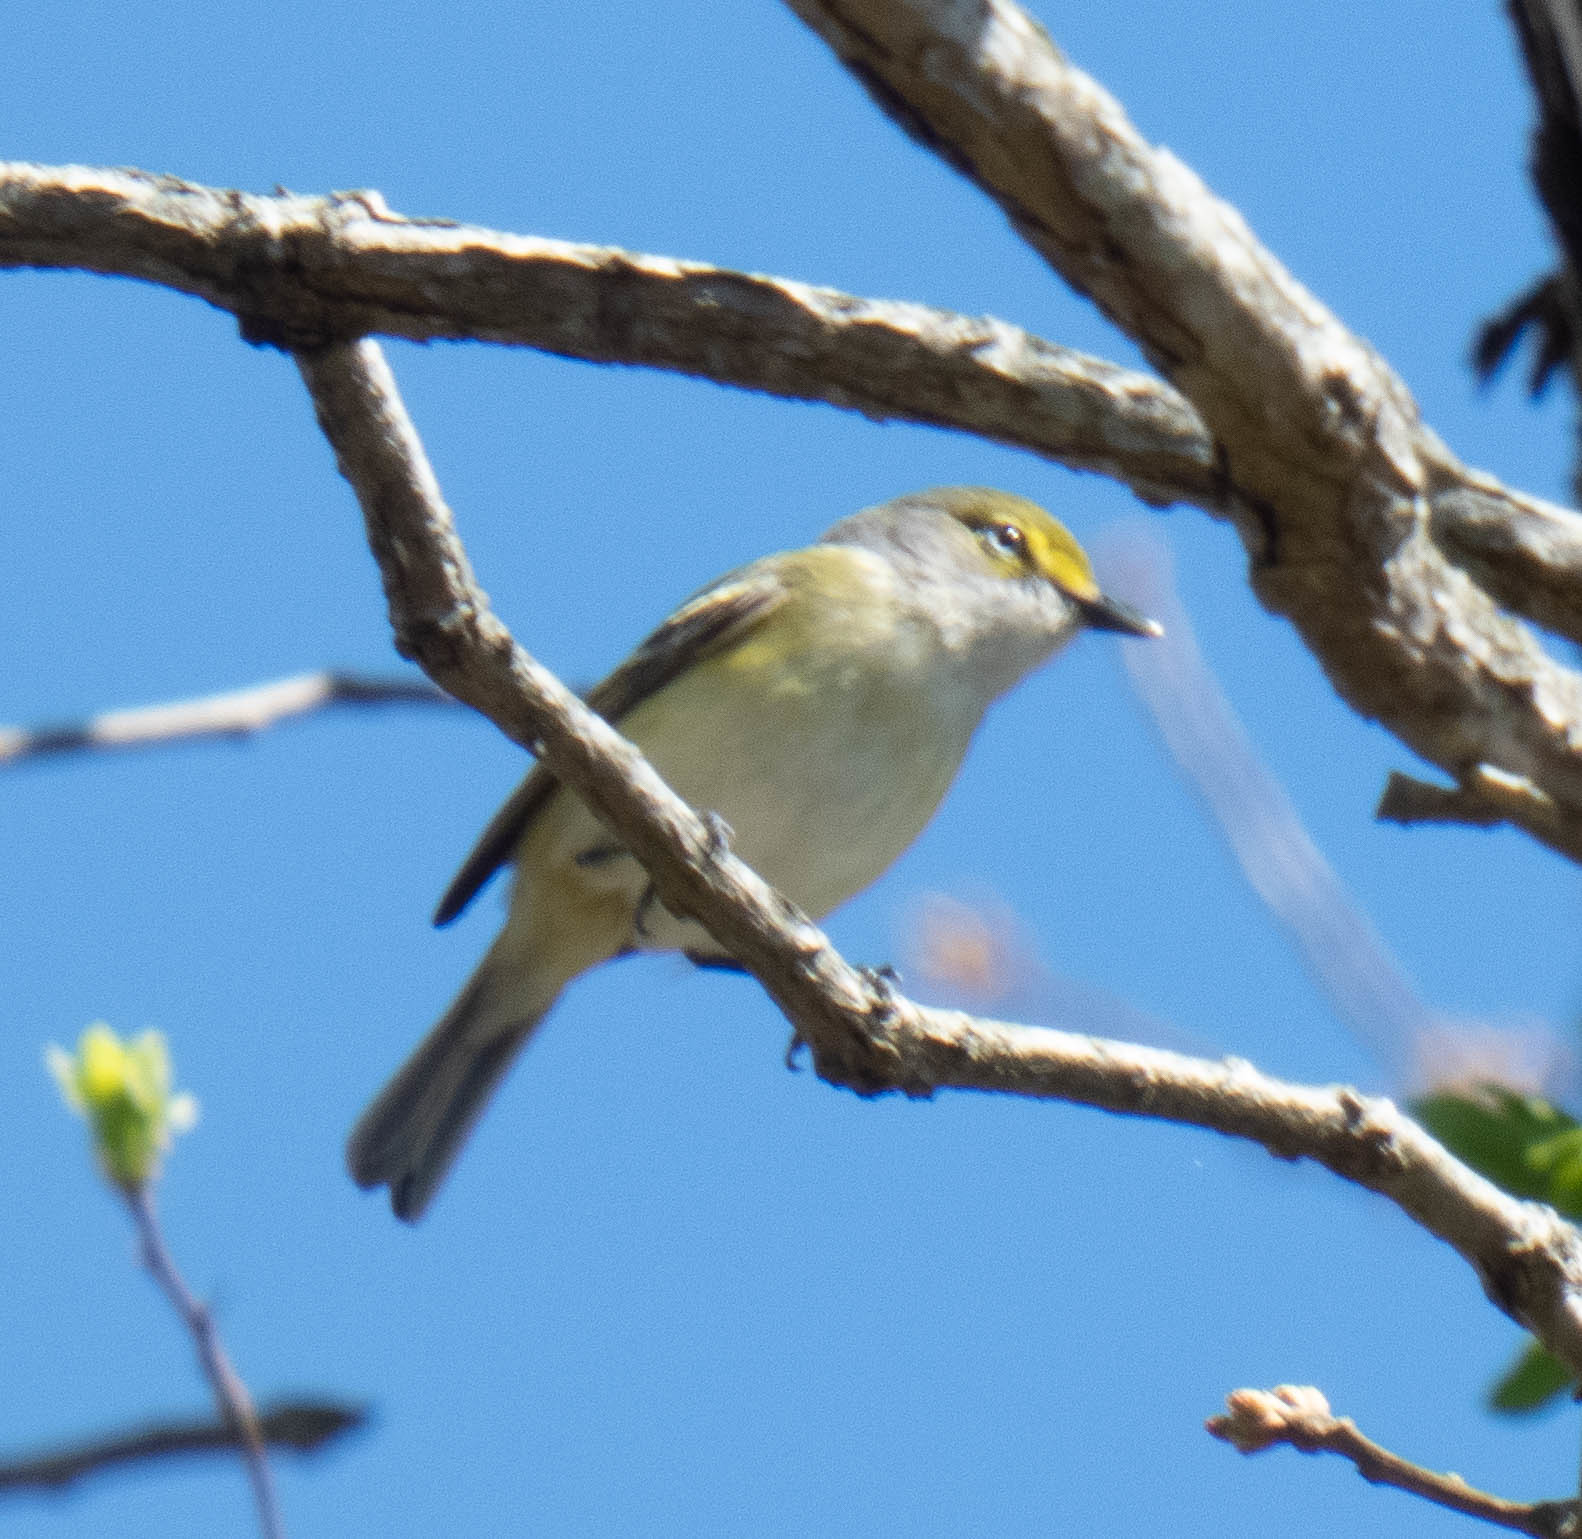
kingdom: Animalia
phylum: Chordata
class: Aves
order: Passeriformes
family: Vireonidae
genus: Vireo
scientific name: Vireo griseus
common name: White-eyed vireo
